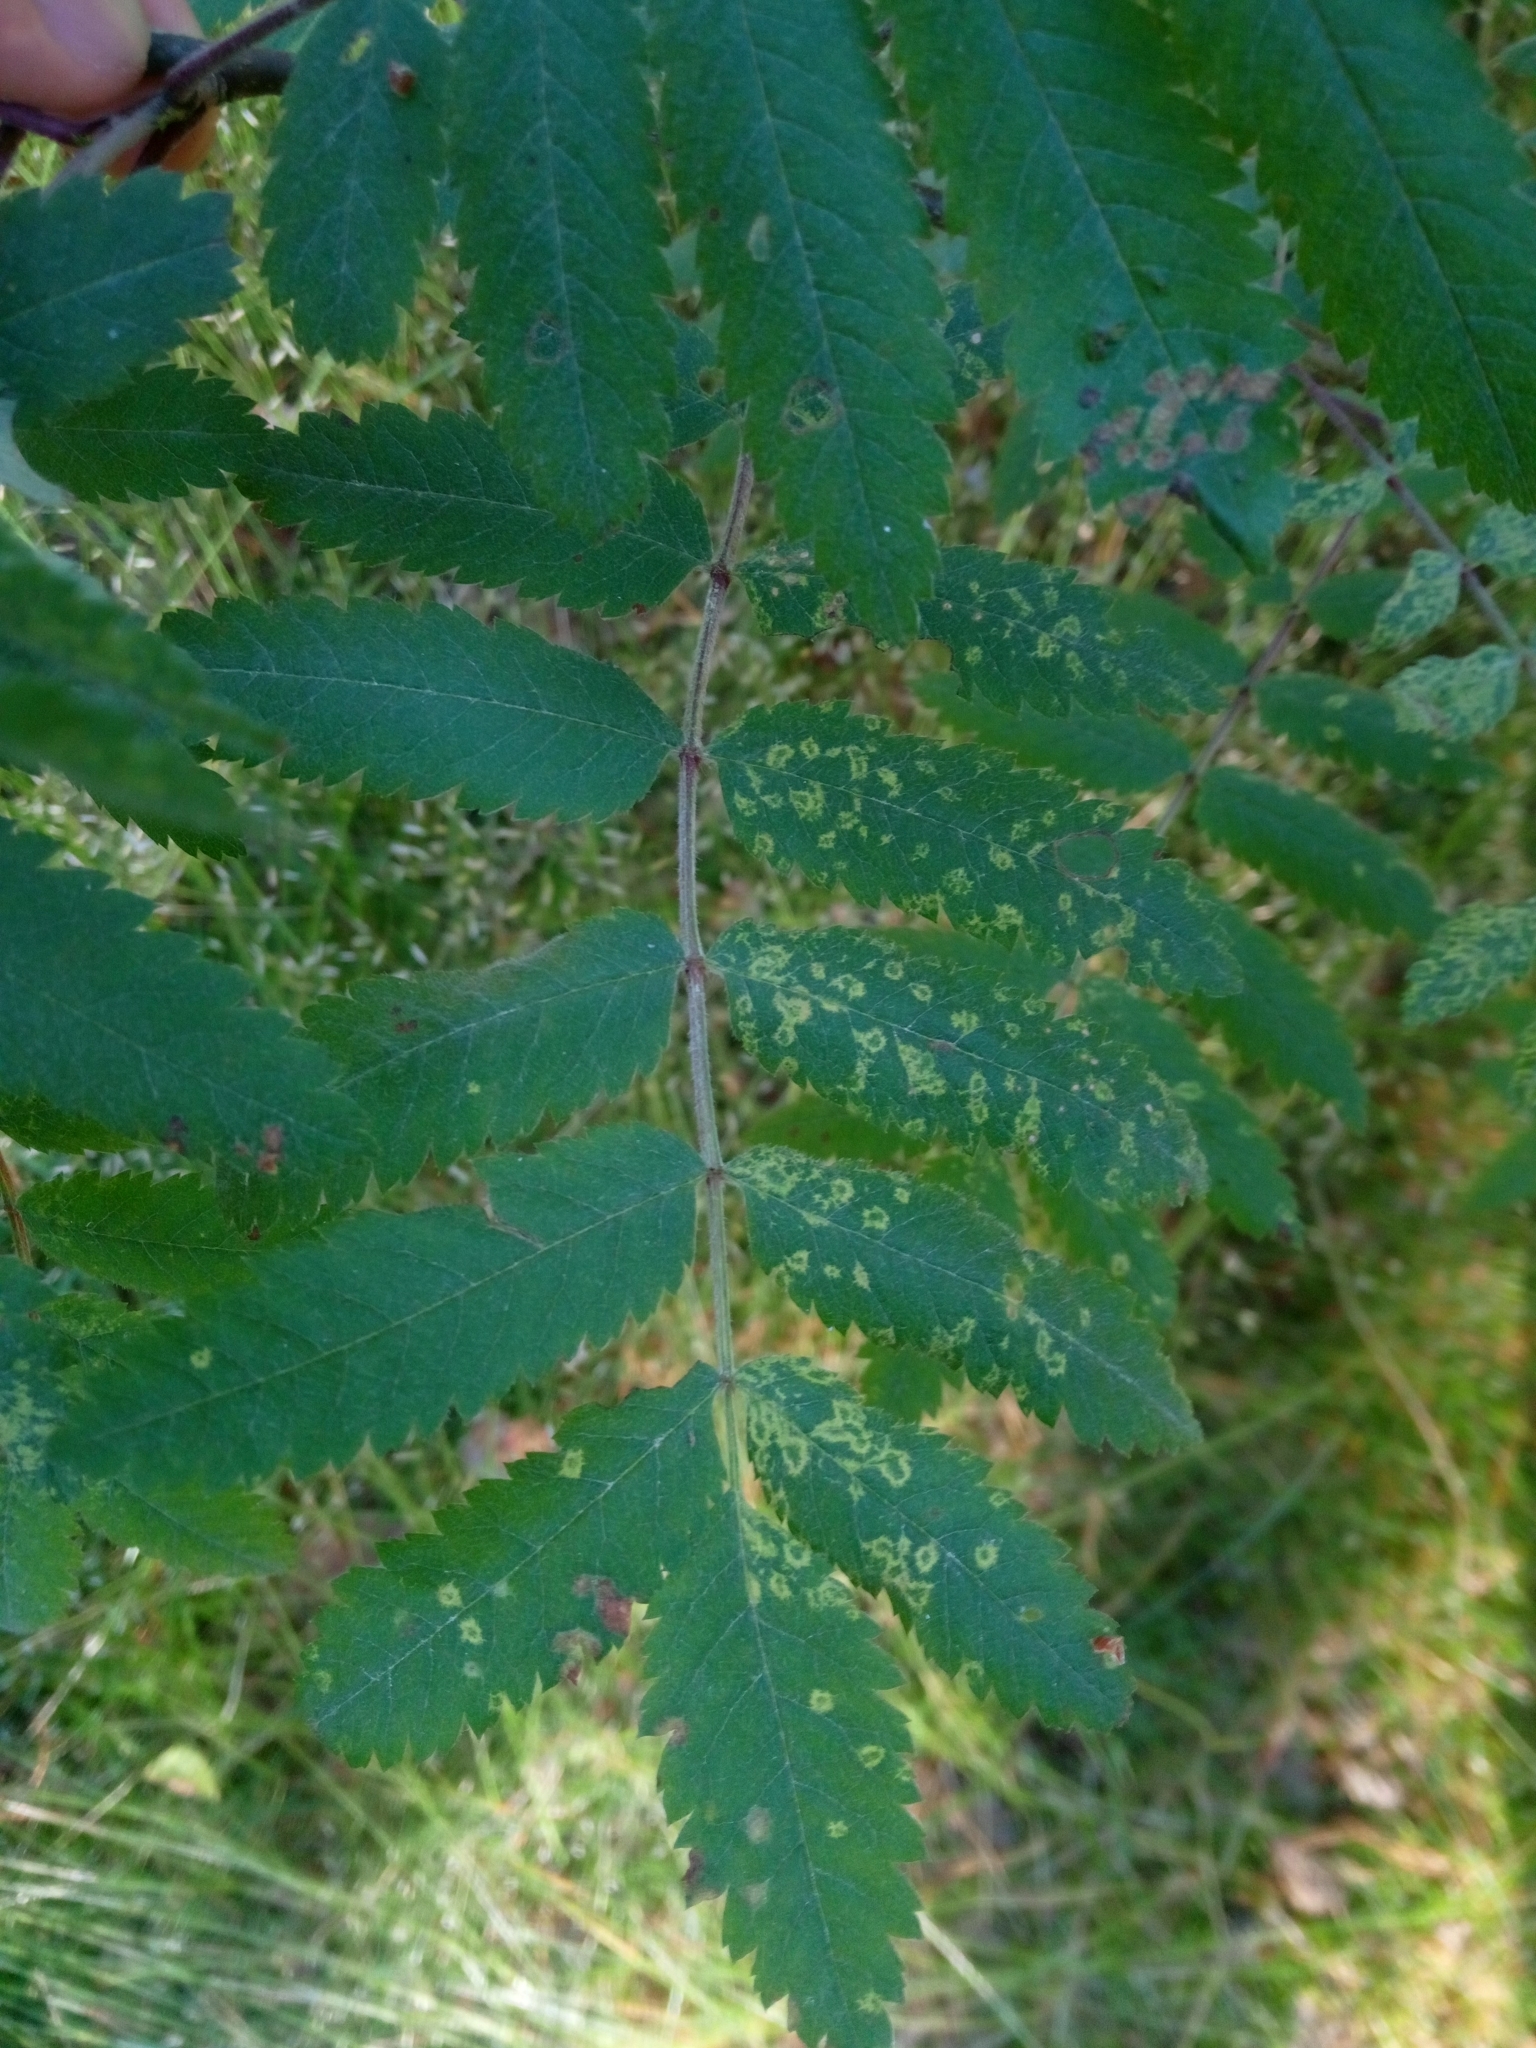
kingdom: Plantae
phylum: Tracheophyta
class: Magnoliopsida
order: Rosales
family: Rosaceae
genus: Sorbus
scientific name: Sorbus aucuparia
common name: Rowan
